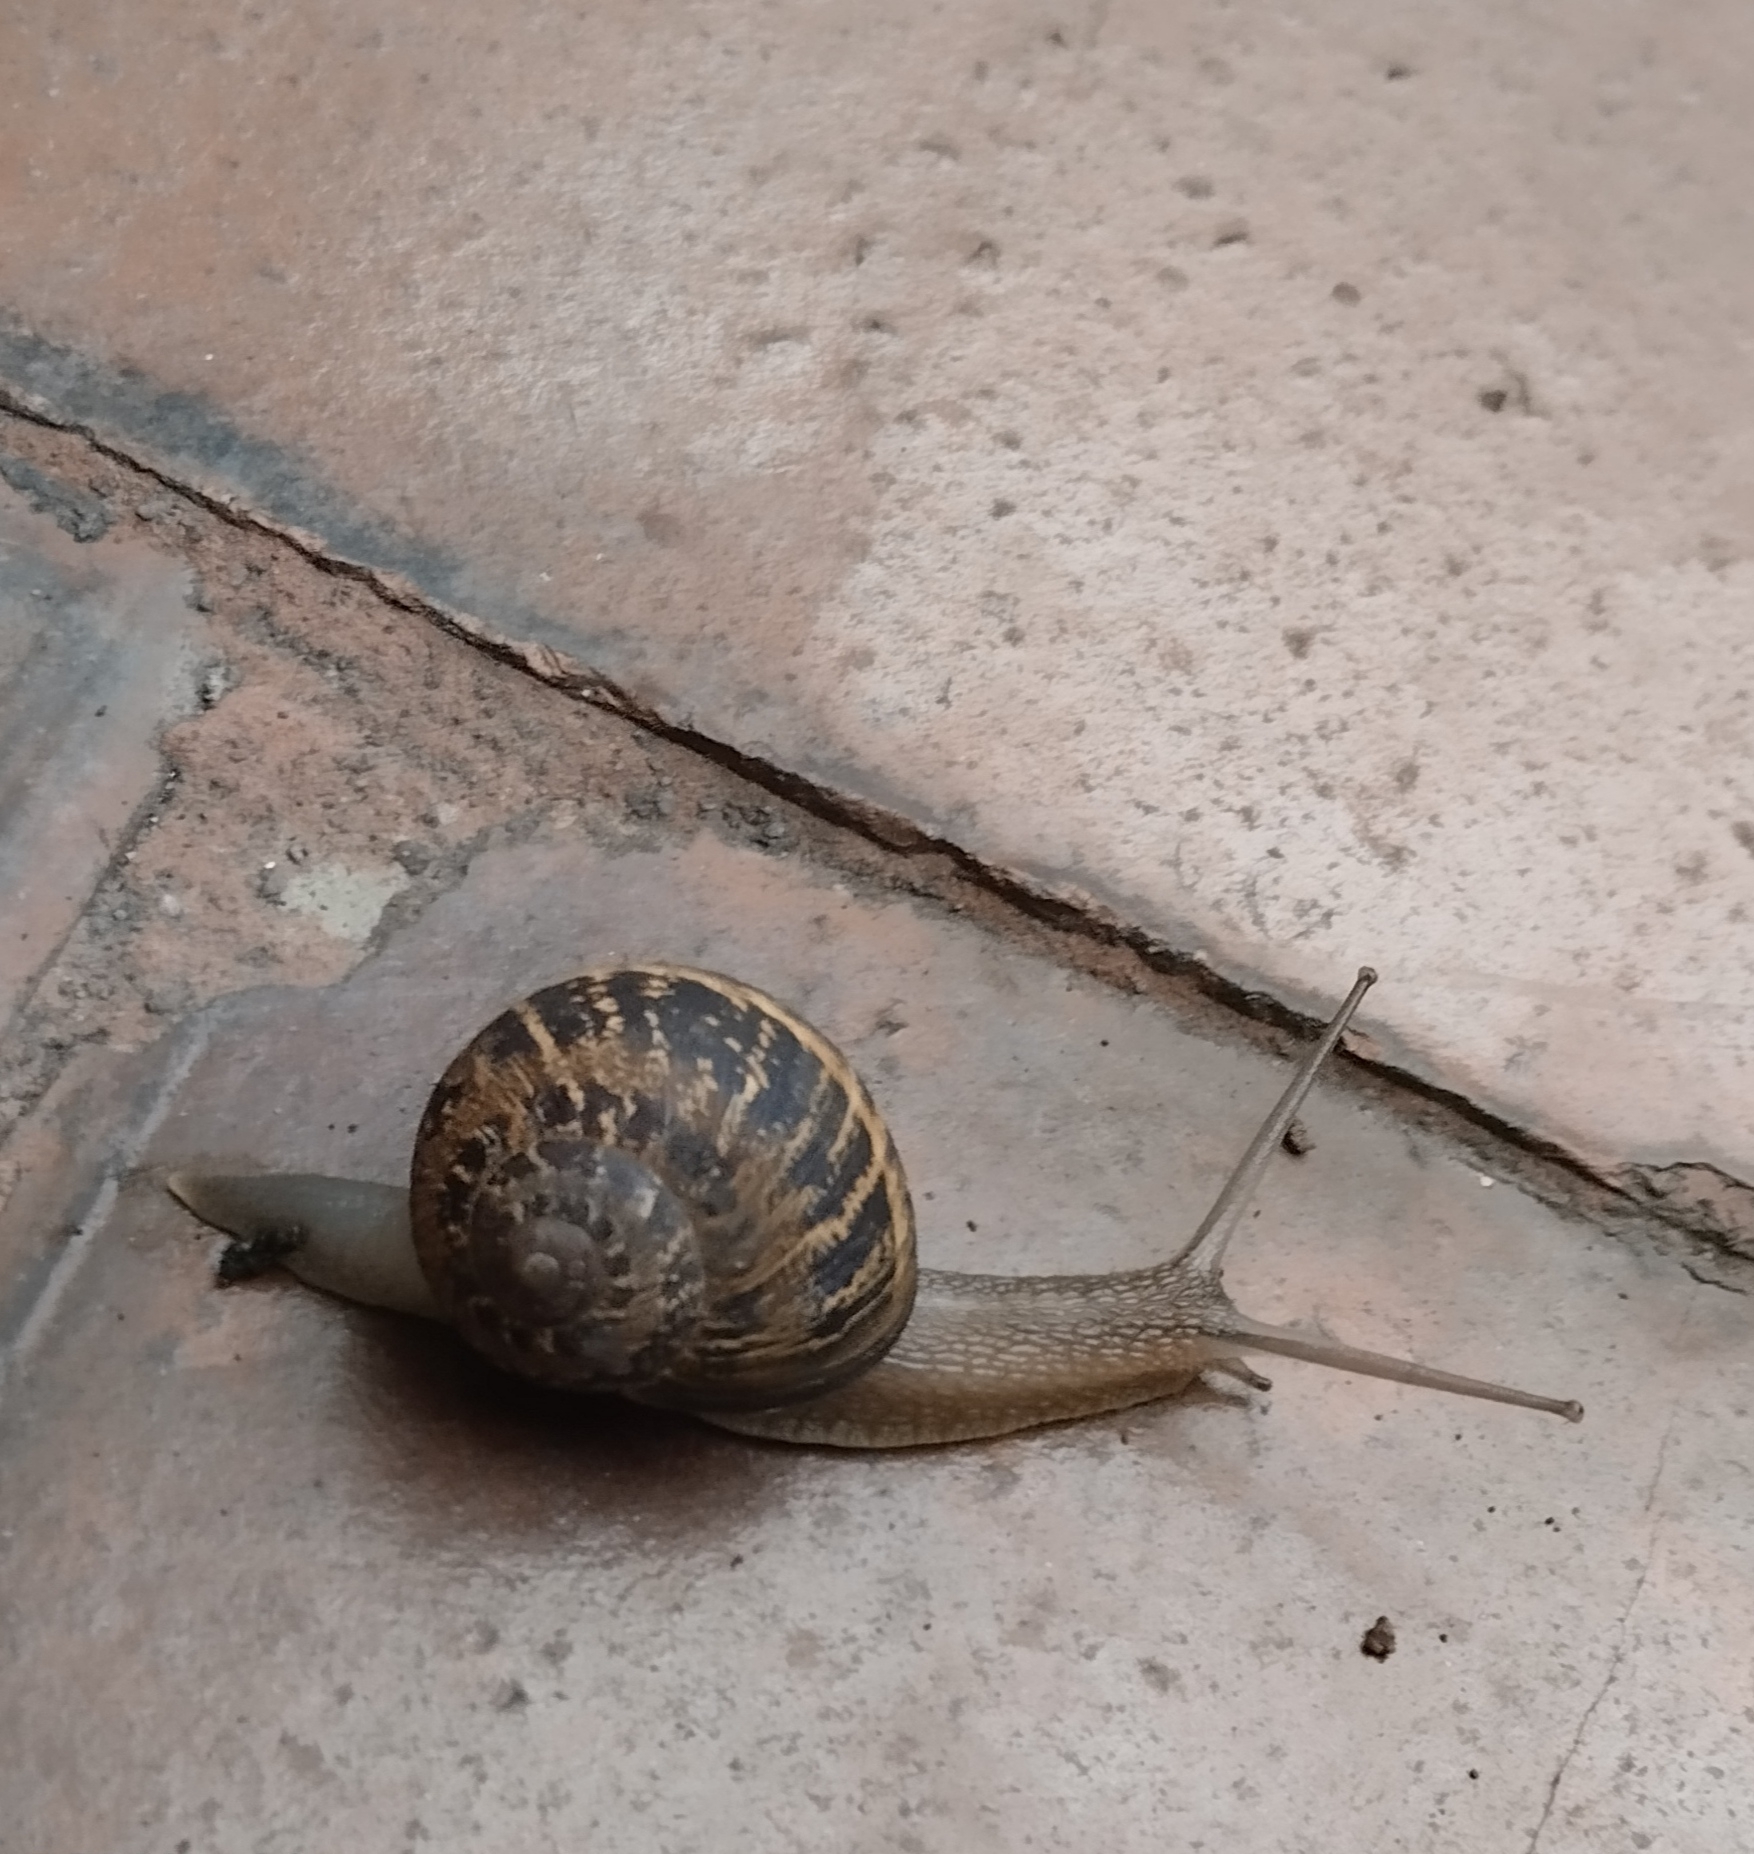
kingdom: Animalia
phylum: Mollusca
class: Gastropoda
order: Stylommatophora
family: Helicidae
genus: Cornu
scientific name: Cornu aspersum
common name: Brown garden snail
